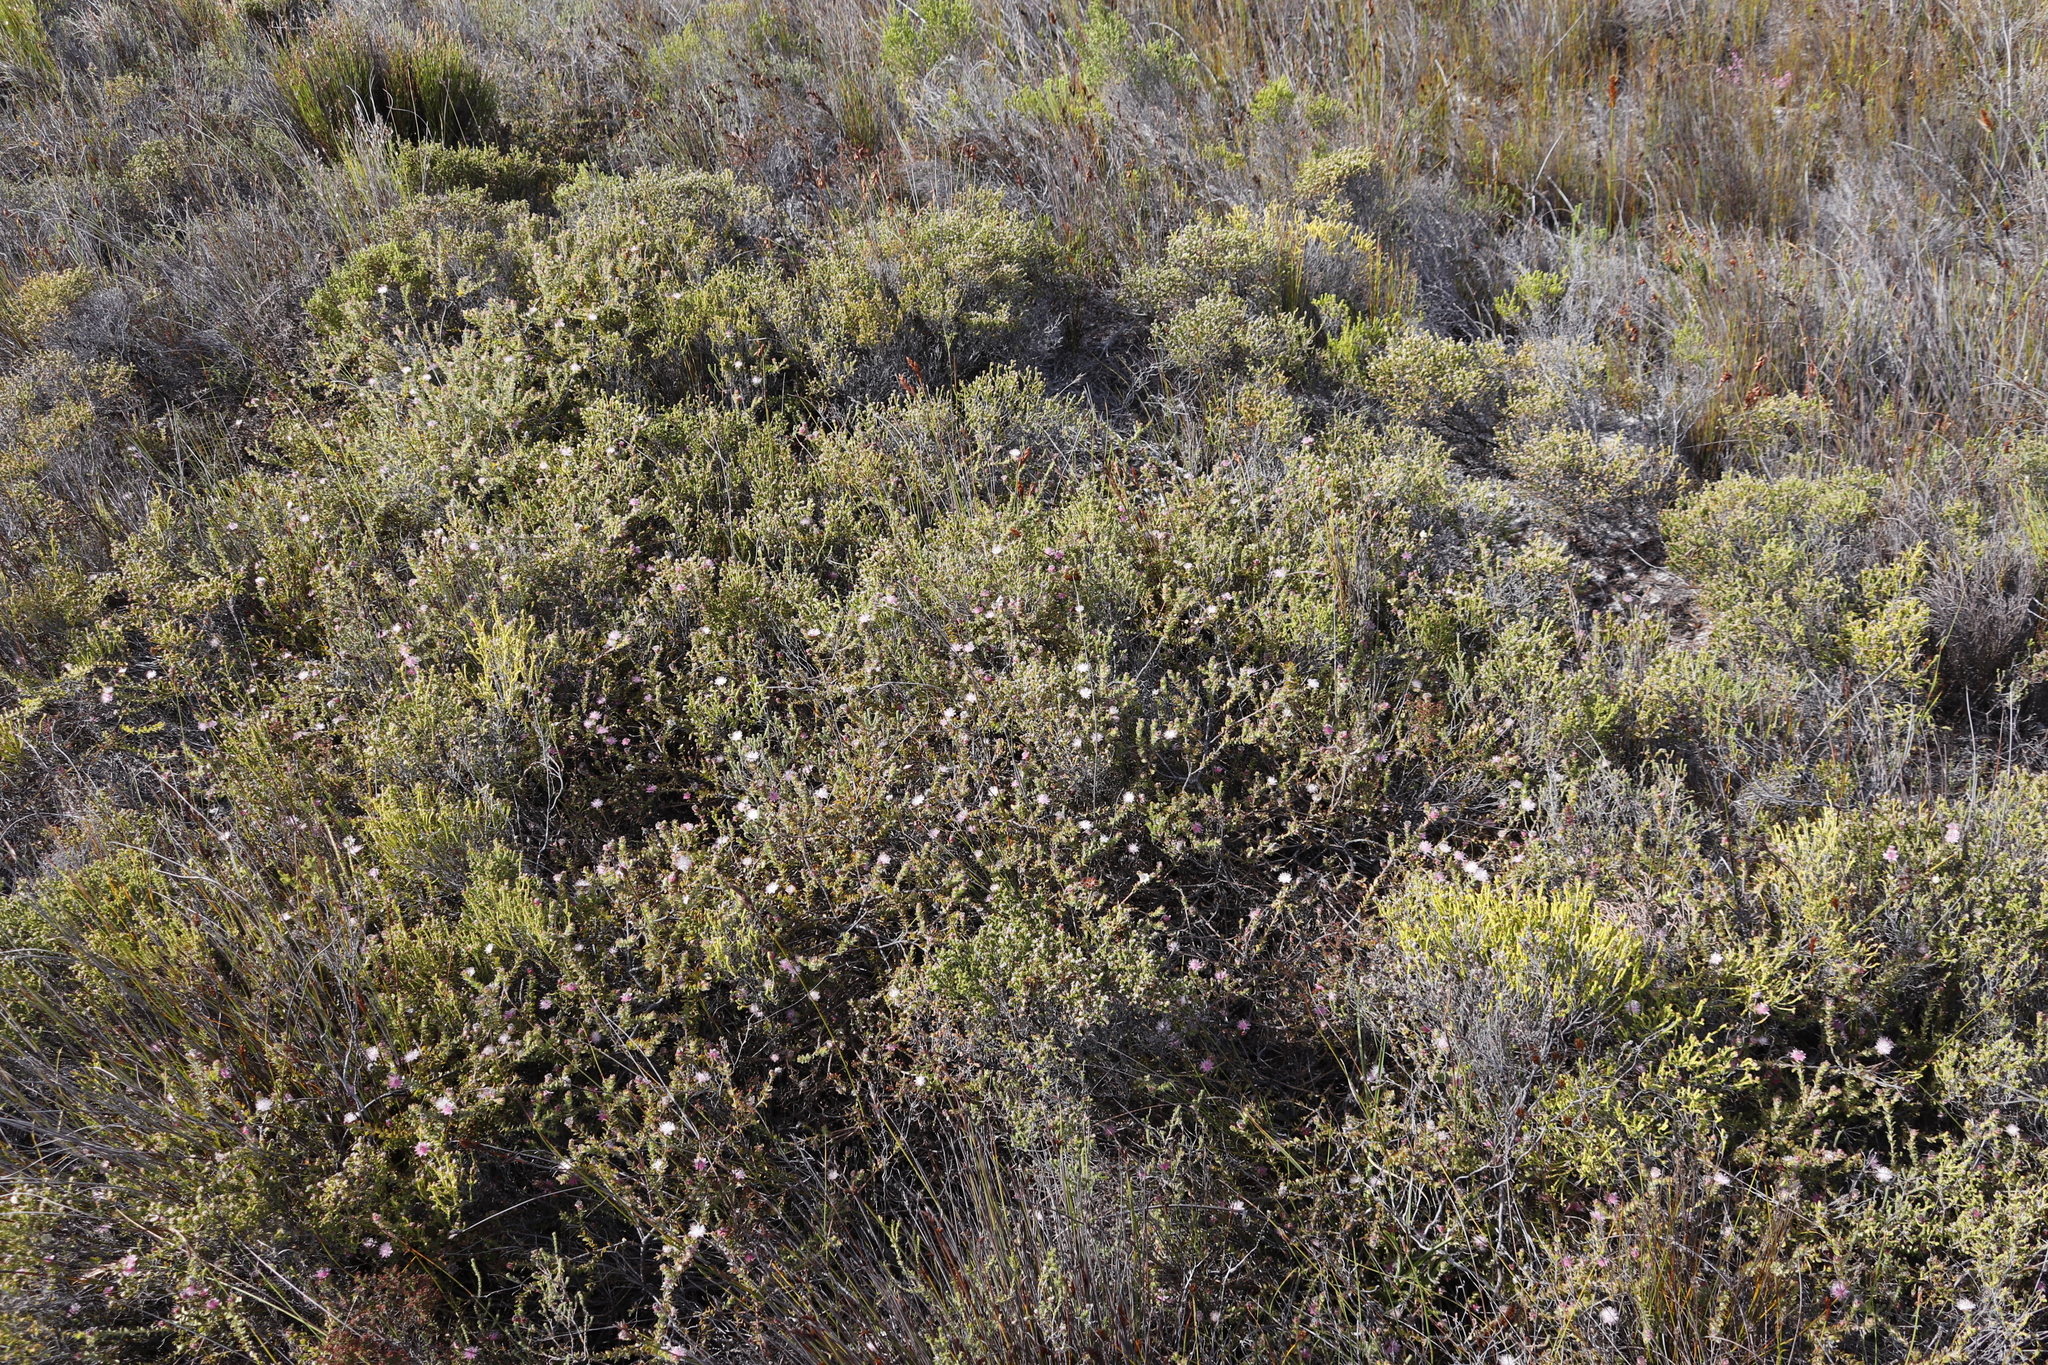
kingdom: Plantae
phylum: Tracheophyta
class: Magnoliopsida
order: Proteales
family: Proteaceae
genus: Diastella
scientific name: Diastella divaricata
